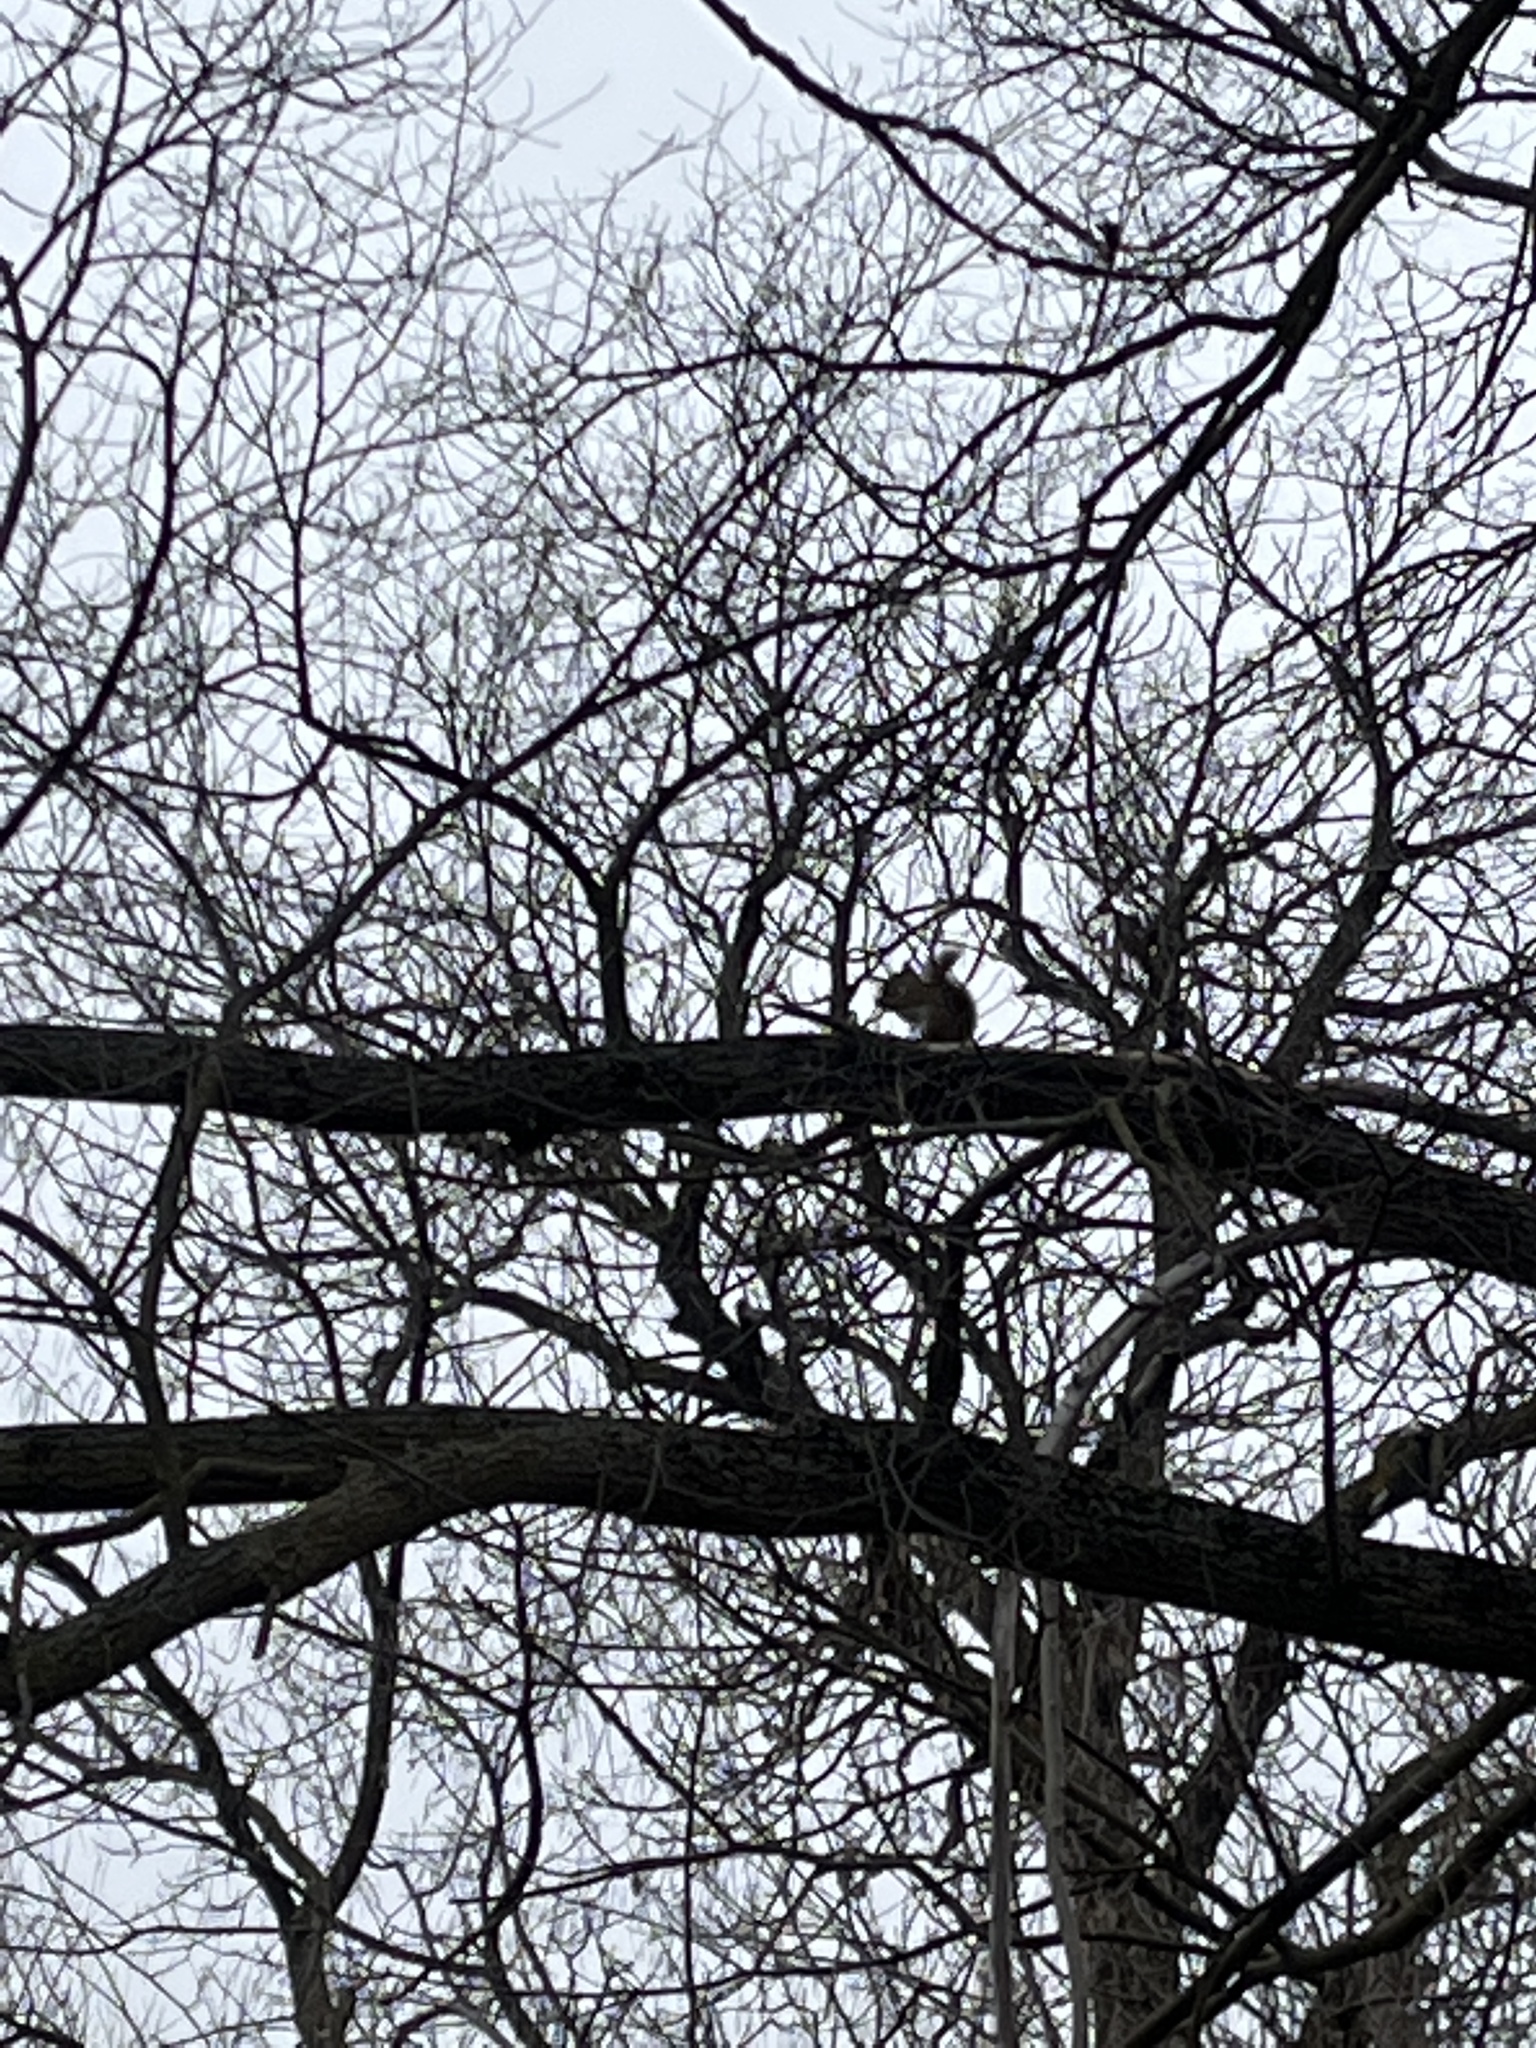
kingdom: Animalia
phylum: Chordata
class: Mammalia
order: Rodentia
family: Sciuridae
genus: Tamiasciurus
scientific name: Tamiasciurus hudsonicus
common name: Red squirrel
